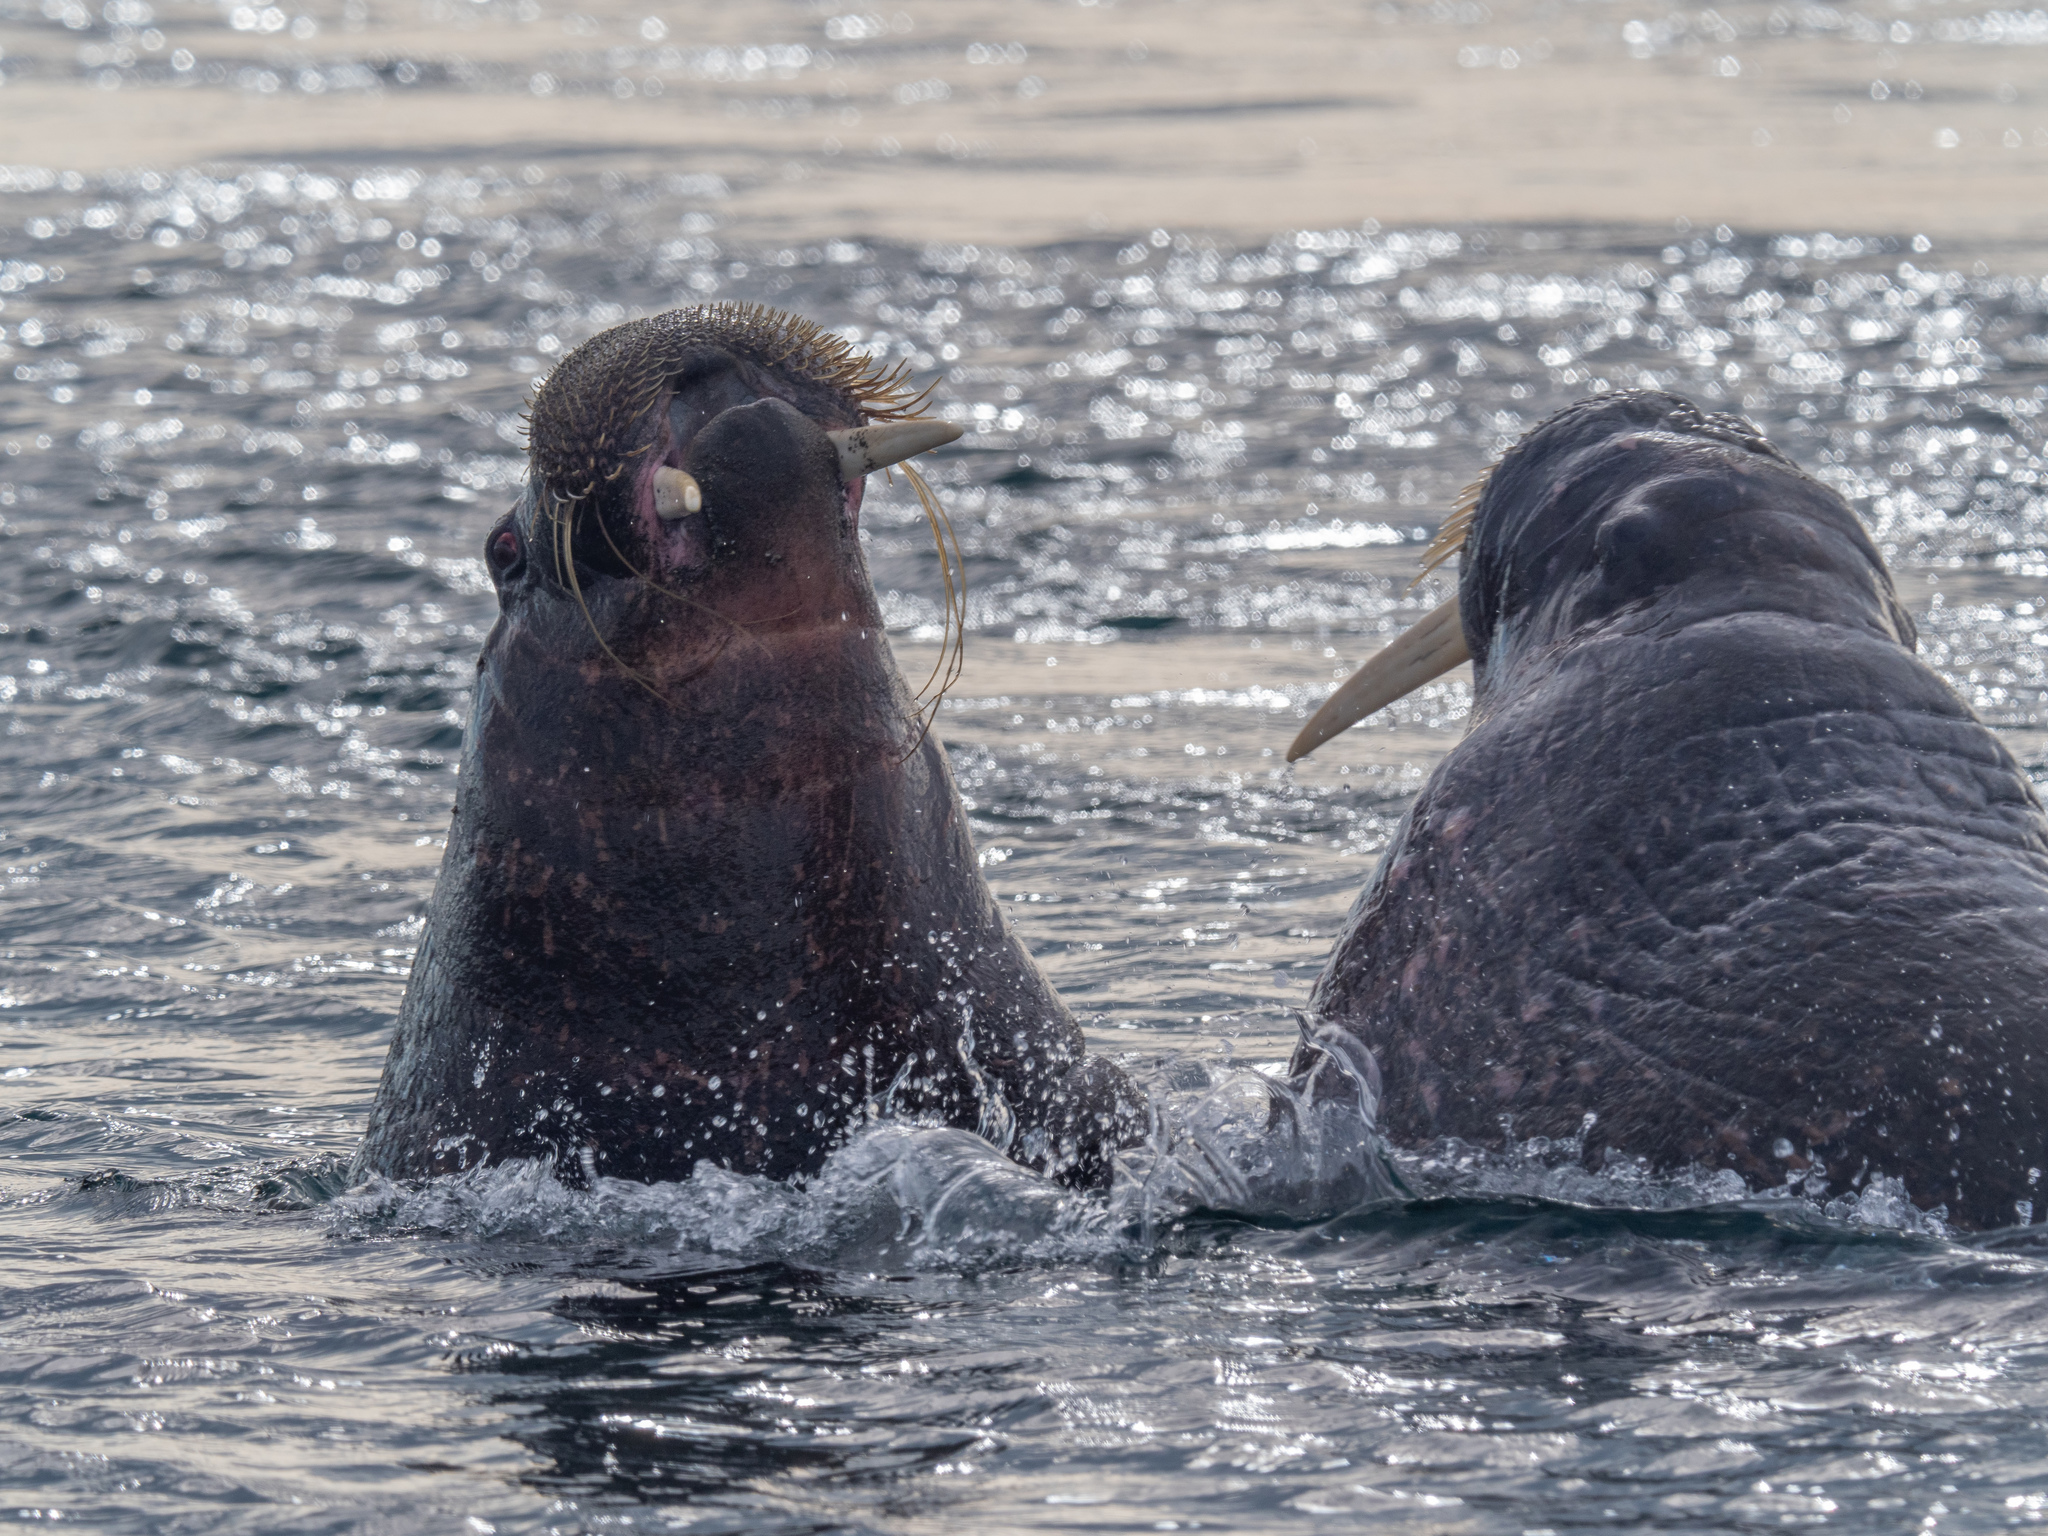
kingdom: Animalia
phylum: Chordata
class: Mammalia
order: Carnivora
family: Odobenidae
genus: Odobenus
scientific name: Odobenus rosmarus
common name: Walrus
